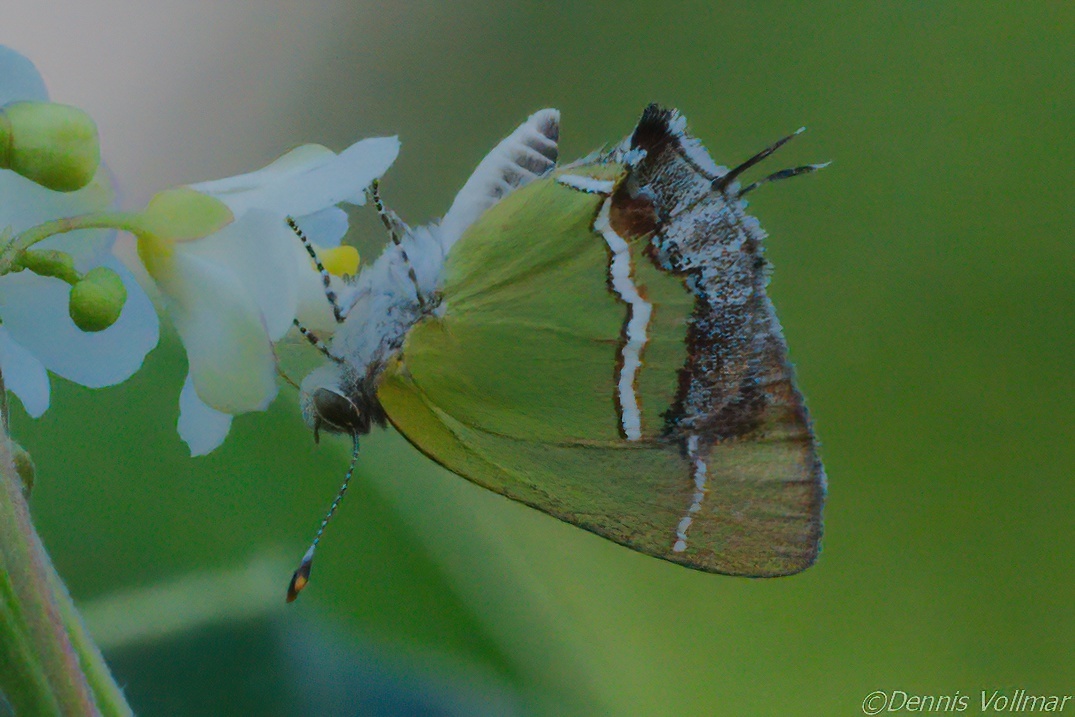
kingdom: Animalia
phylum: Arthropoda
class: Insecta
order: Lepidoptera
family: Lycaenidae
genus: Chlorostrymon
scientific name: Chlorostrymon simaethis
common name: Silver-banded hairstreak
